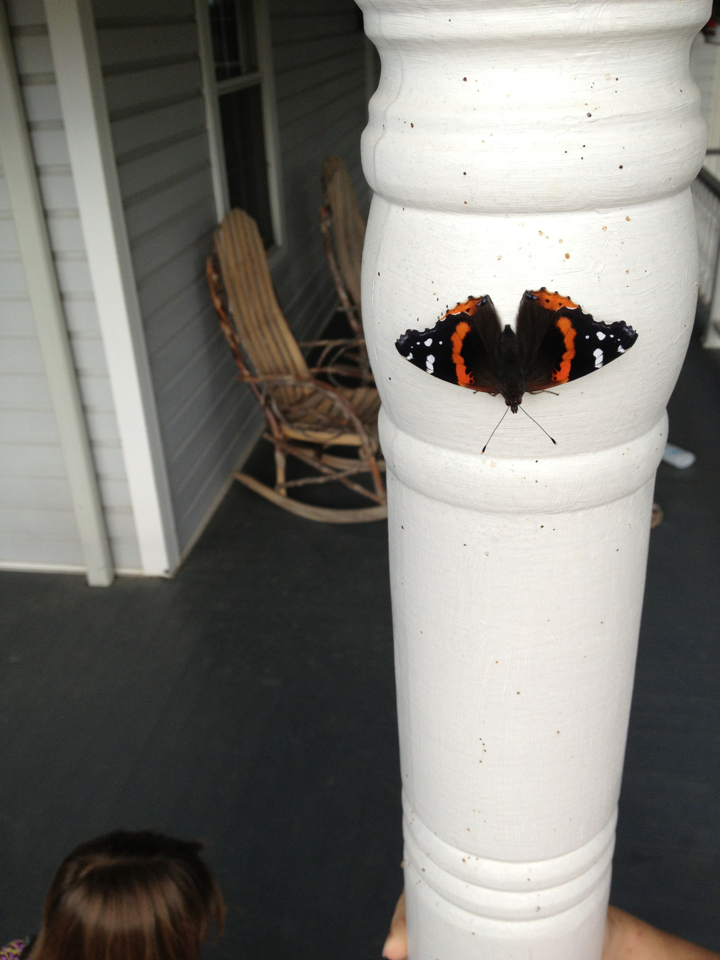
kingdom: Animalia
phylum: Arthropoda
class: Insecta
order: Lepidoptera
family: Nymphalidae
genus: Vanessa
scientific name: Vanessa atalanta
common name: Red admiral
